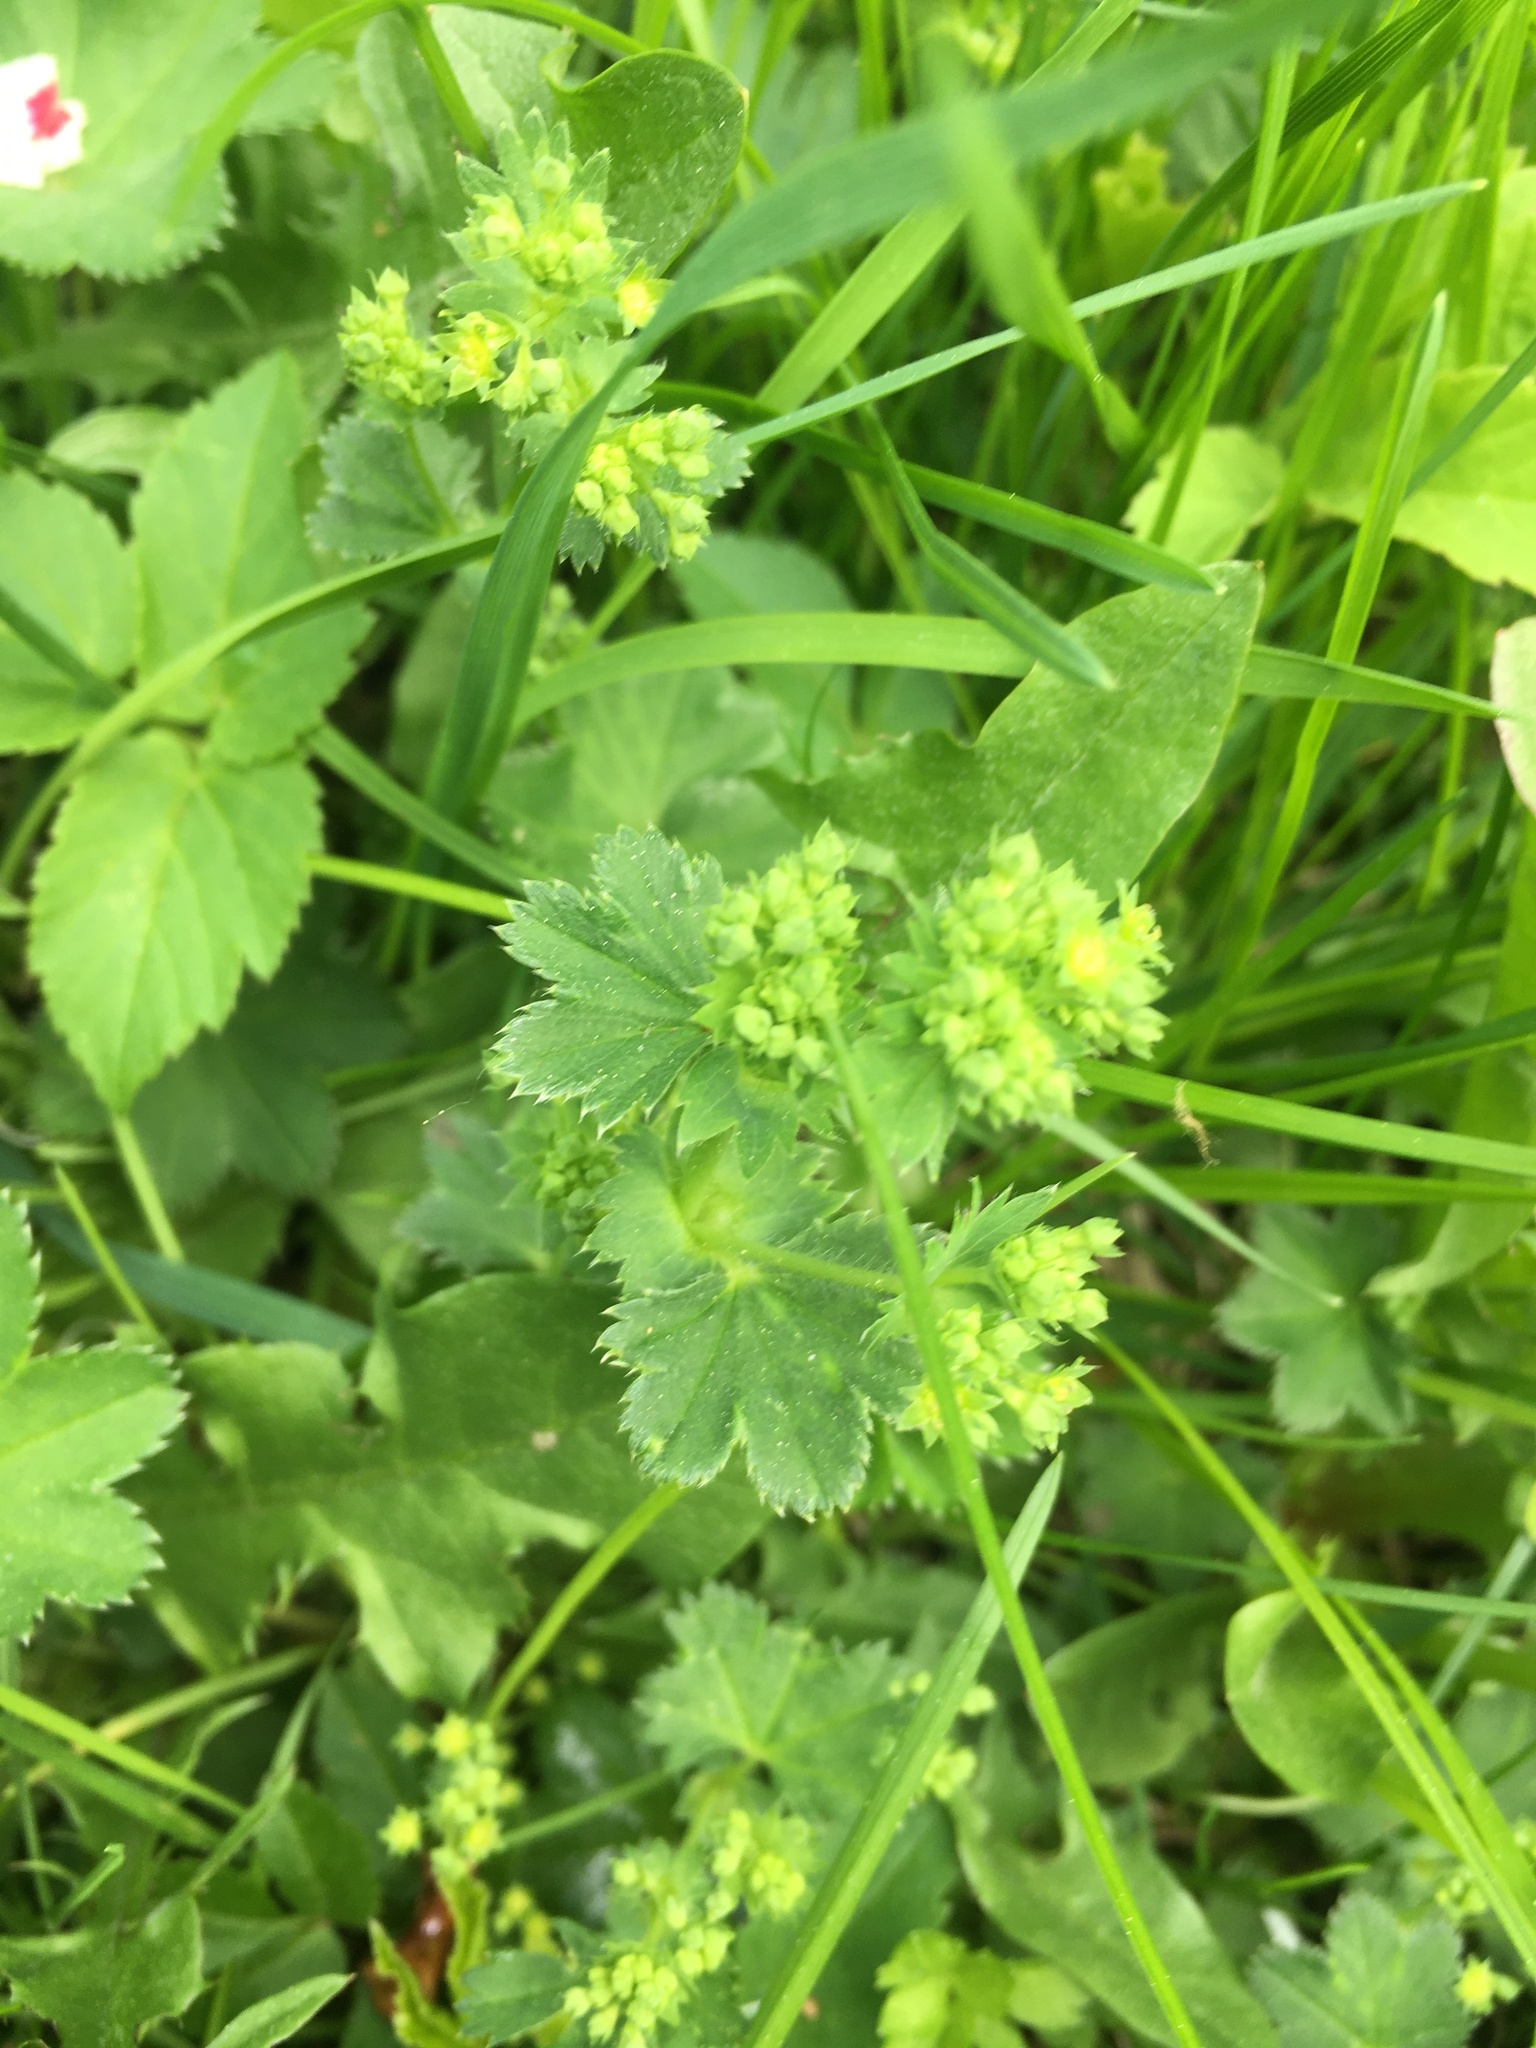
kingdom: Plantae
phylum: Tracheophyta
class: Magnoliopsida
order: Rosales
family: Rosaceae
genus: Alchemilla
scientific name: Alchemilla
